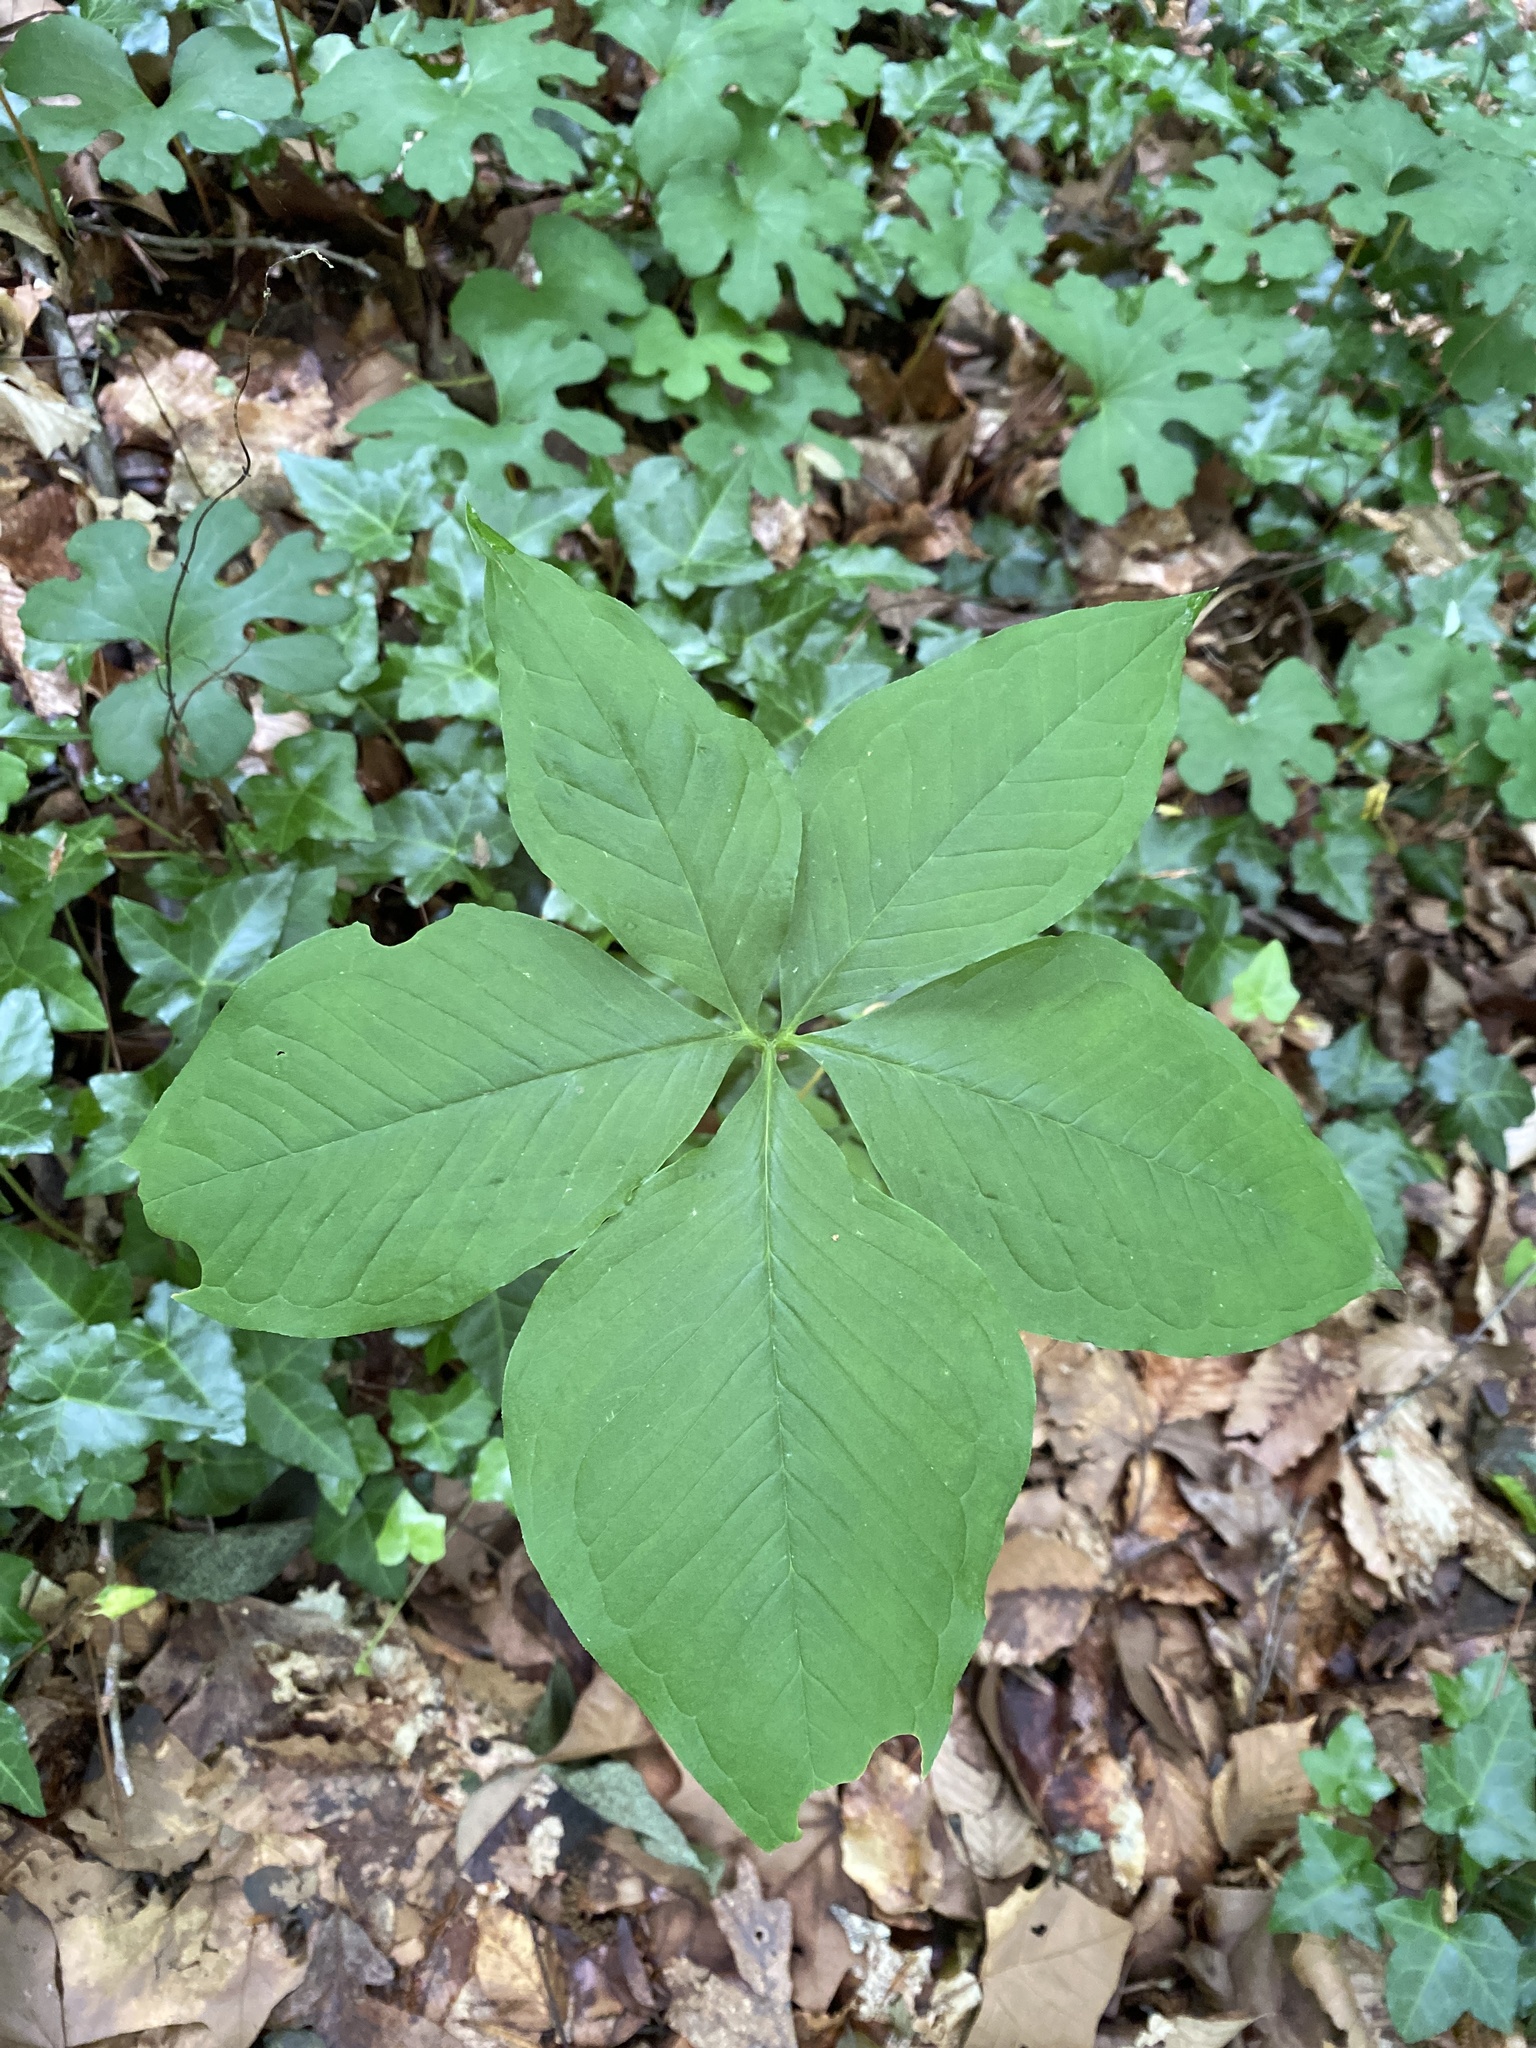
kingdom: Plantae
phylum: Tracheophyta
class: Liliopsida
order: Alismatales
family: Araceae
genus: Arisaema
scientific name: Arisaema quinatum
